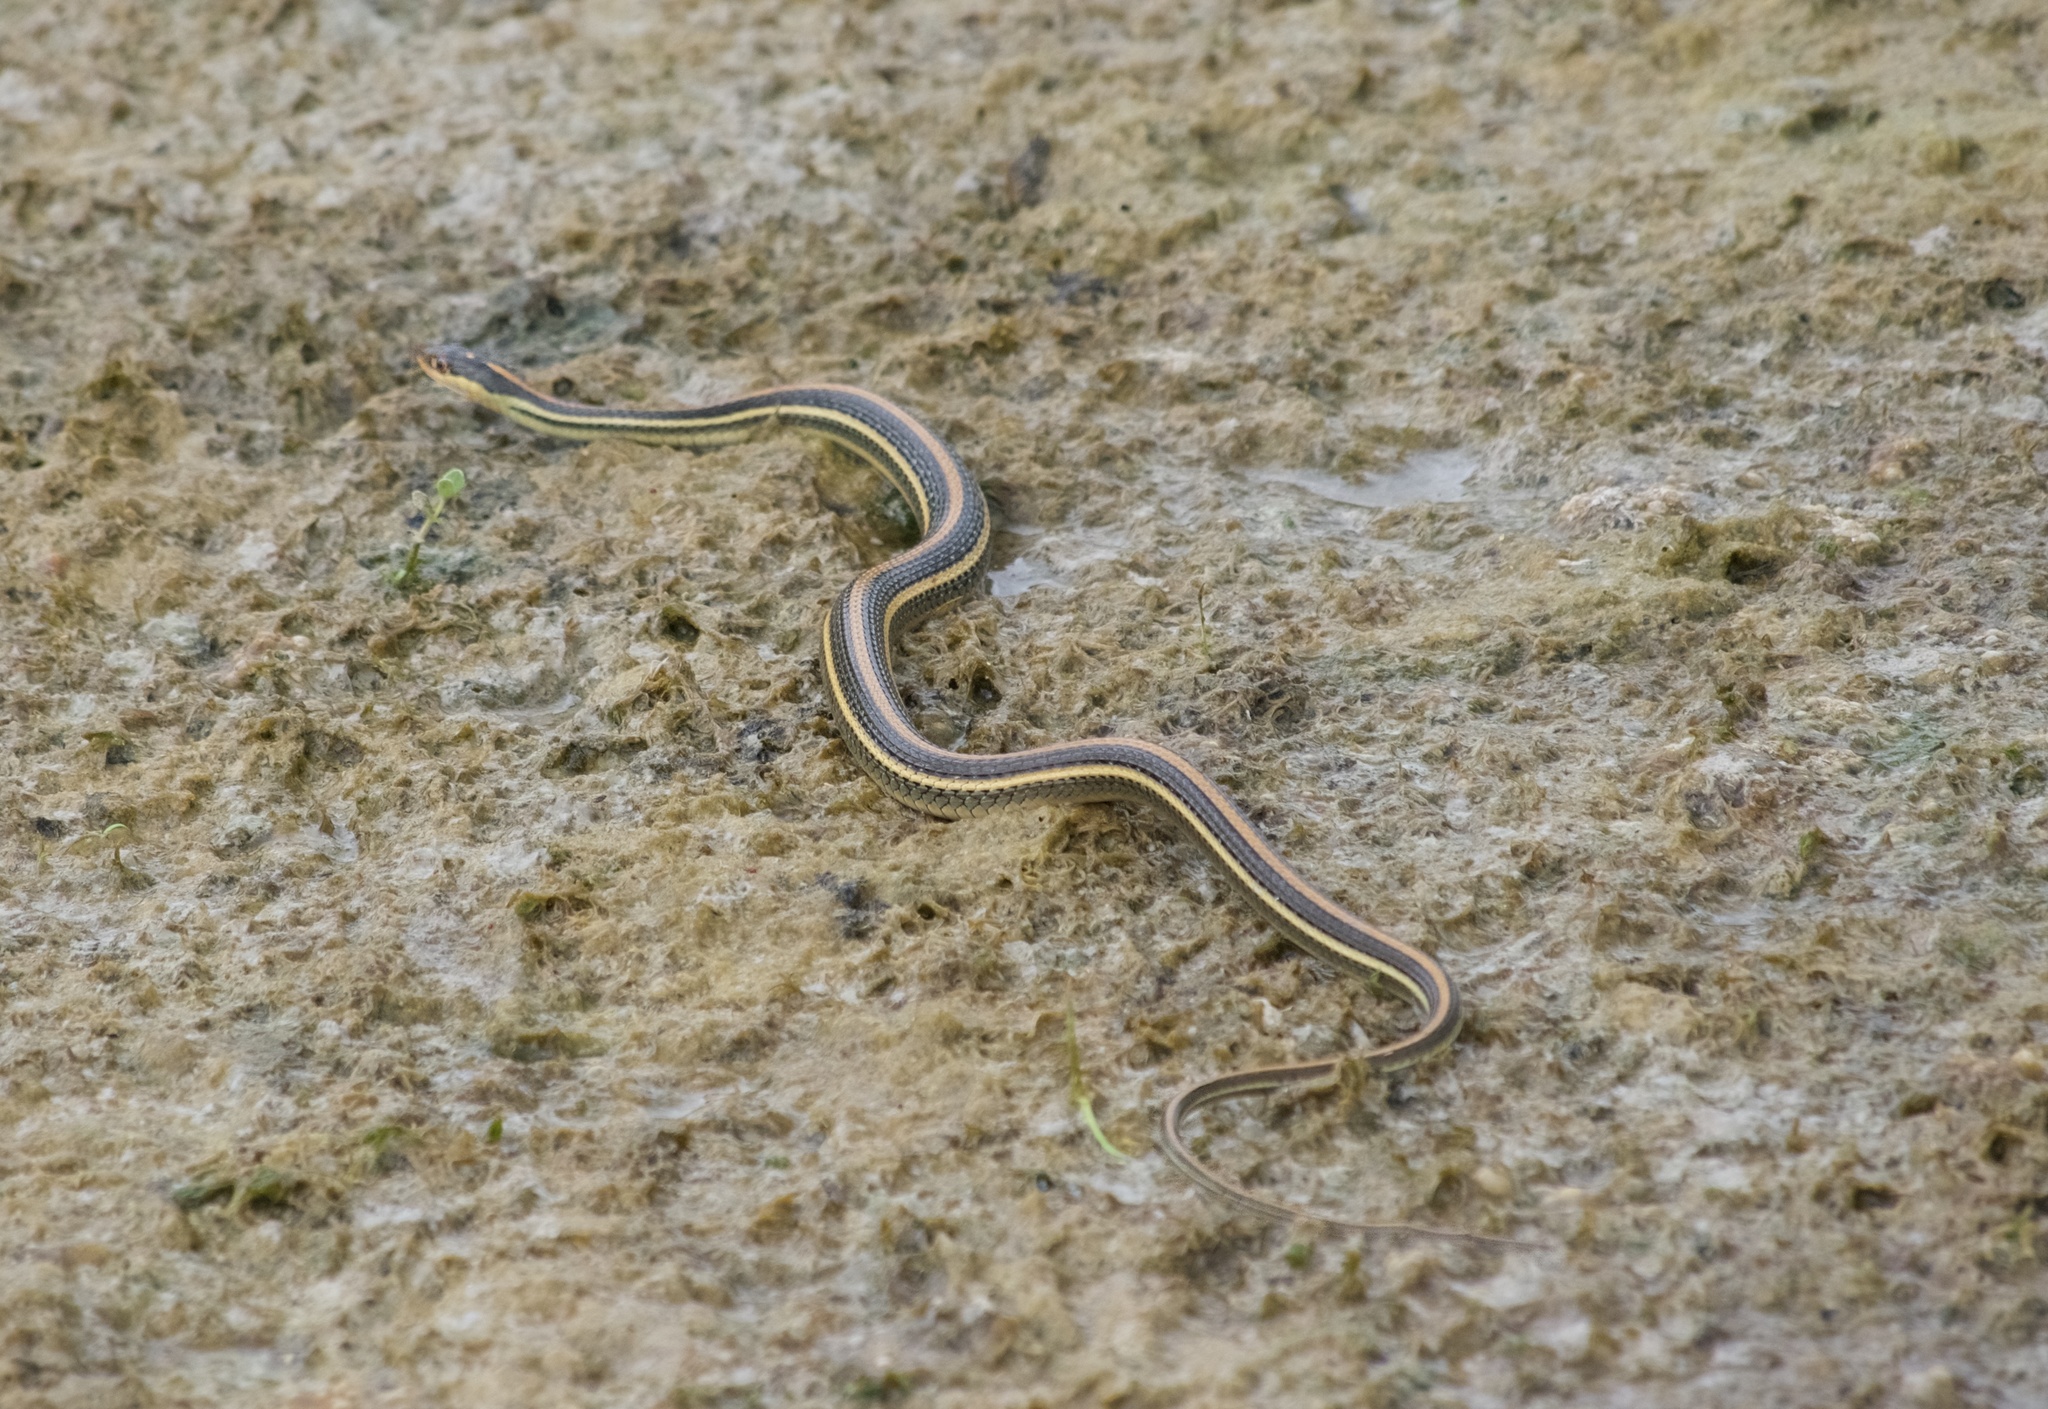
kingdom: Animalia
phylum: Chordata
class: Squamata
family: Colubridae
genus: Thamnophis
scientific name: Thamnophis proximus
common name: Western ribbon snake
